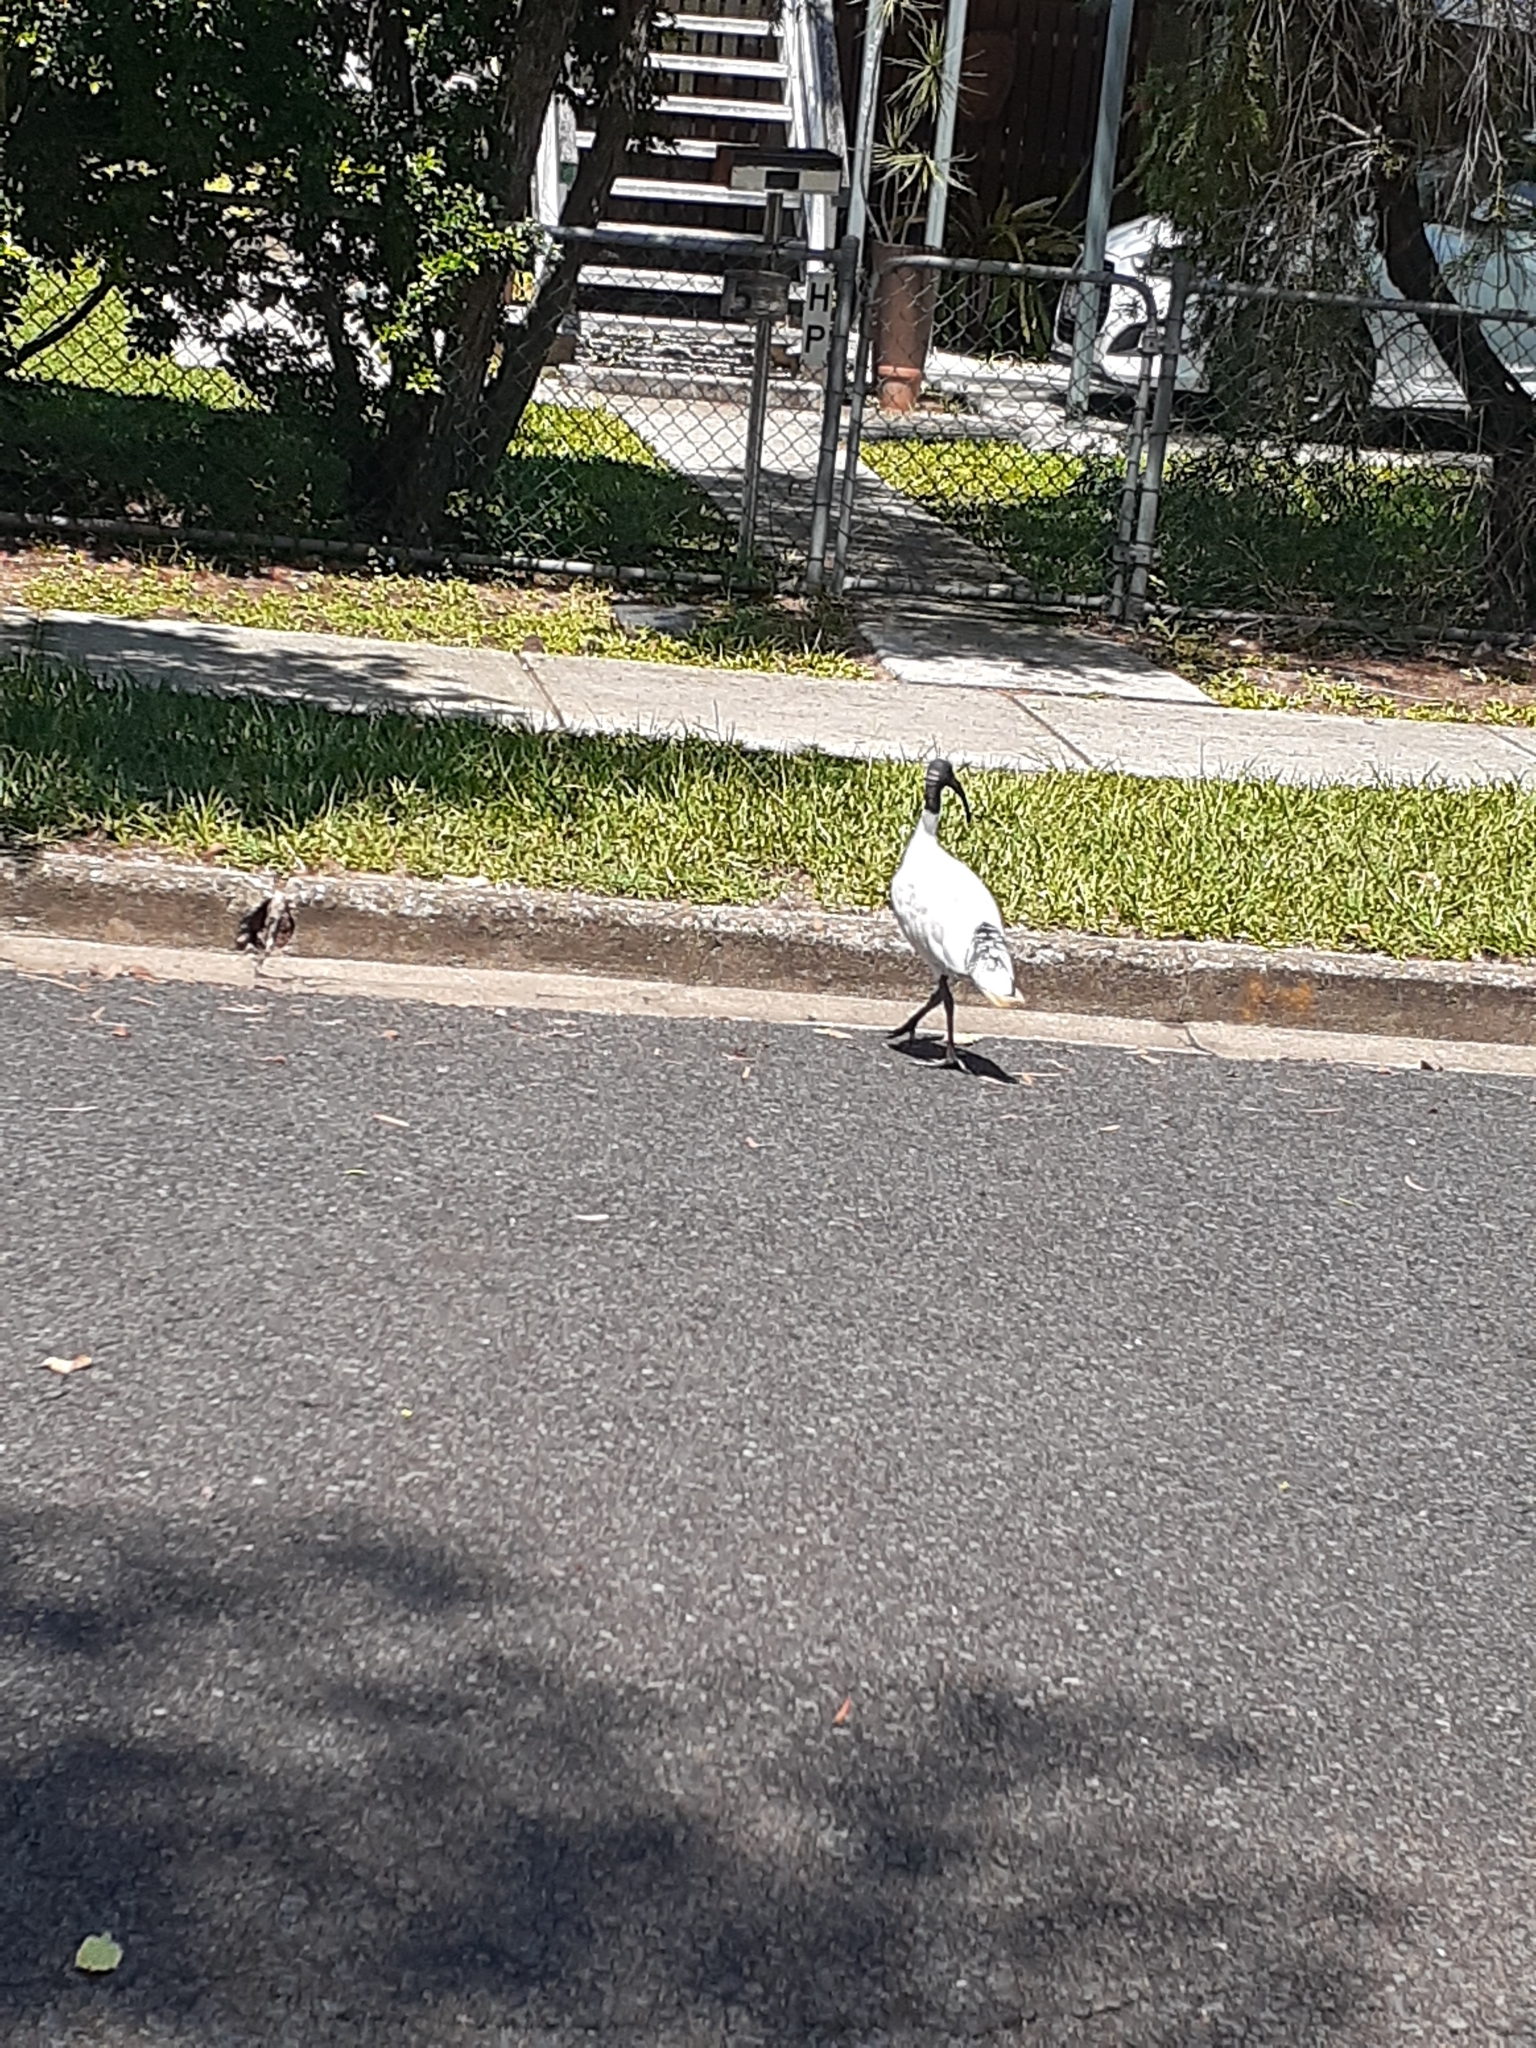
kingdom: Animalia
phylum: Chordata
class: Aves
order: Pelecaniformes
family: Threskiornithidae
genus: Threskiornis
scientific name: Threskiornis molucca
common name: Australian white ibis
